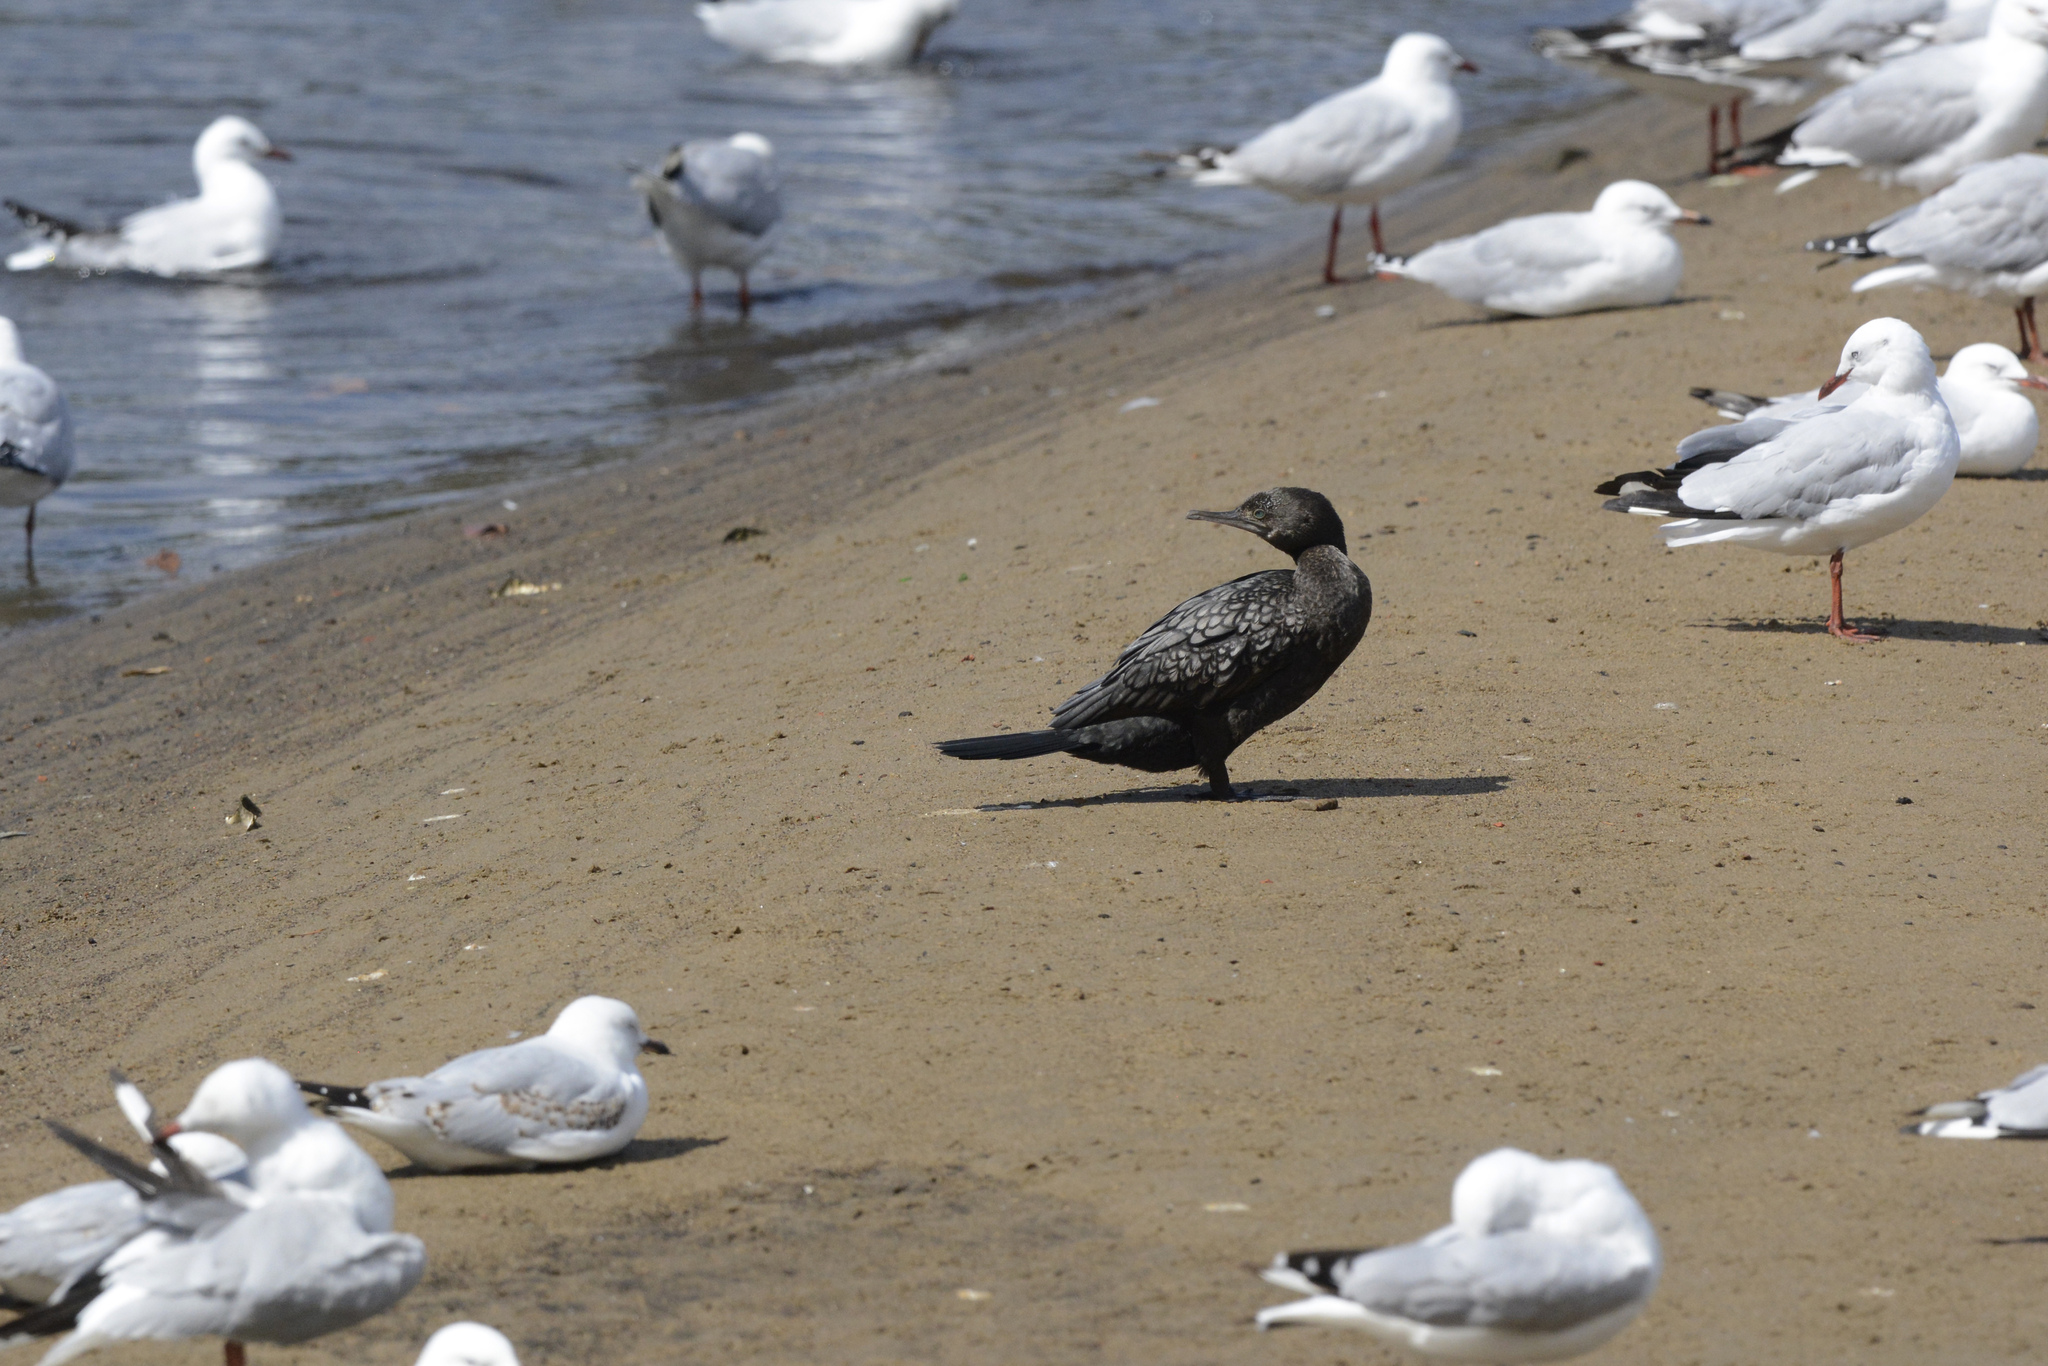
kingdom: Animalia
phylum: Chordata
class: Aves
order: Suliformes
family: Phalacrocoracidae
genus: Phalacrocorax
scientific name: Phalacrocorax sulcirostris
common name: Little black cormorant
